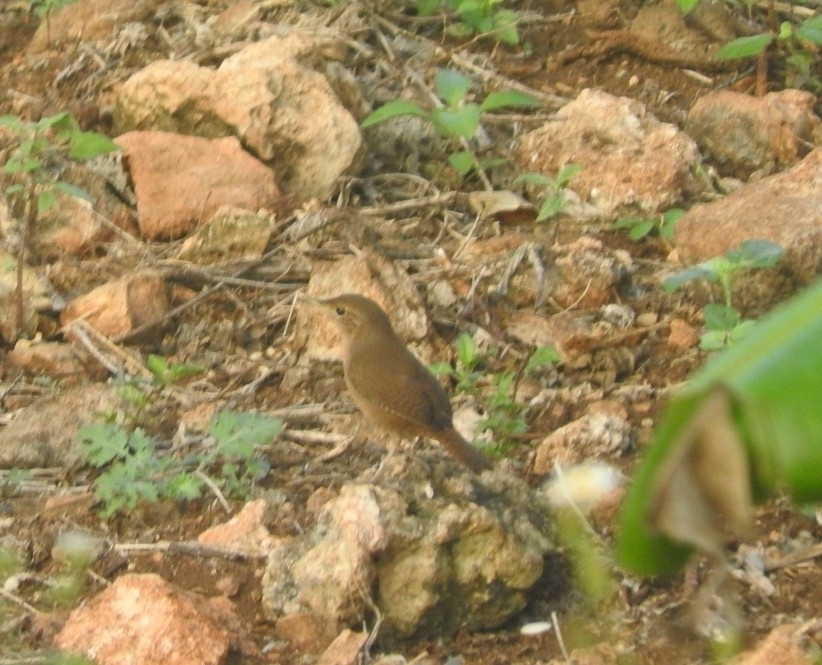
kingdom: Animalia
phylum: Chordata
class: Aves
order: Passeriformes
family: Troglodytidae
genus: Troglodytes
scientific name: Troglodytes aedon
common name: House wren
